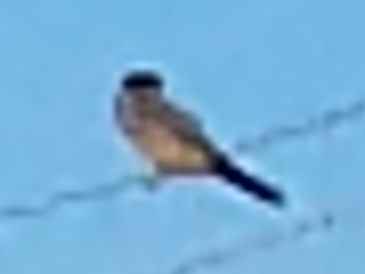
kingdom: Animalia
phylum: Chordata
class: Aves
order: Passeriformes
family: Tyrannidae
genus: Sayornis
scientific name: Sayornis saya
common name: Say's phoebe
